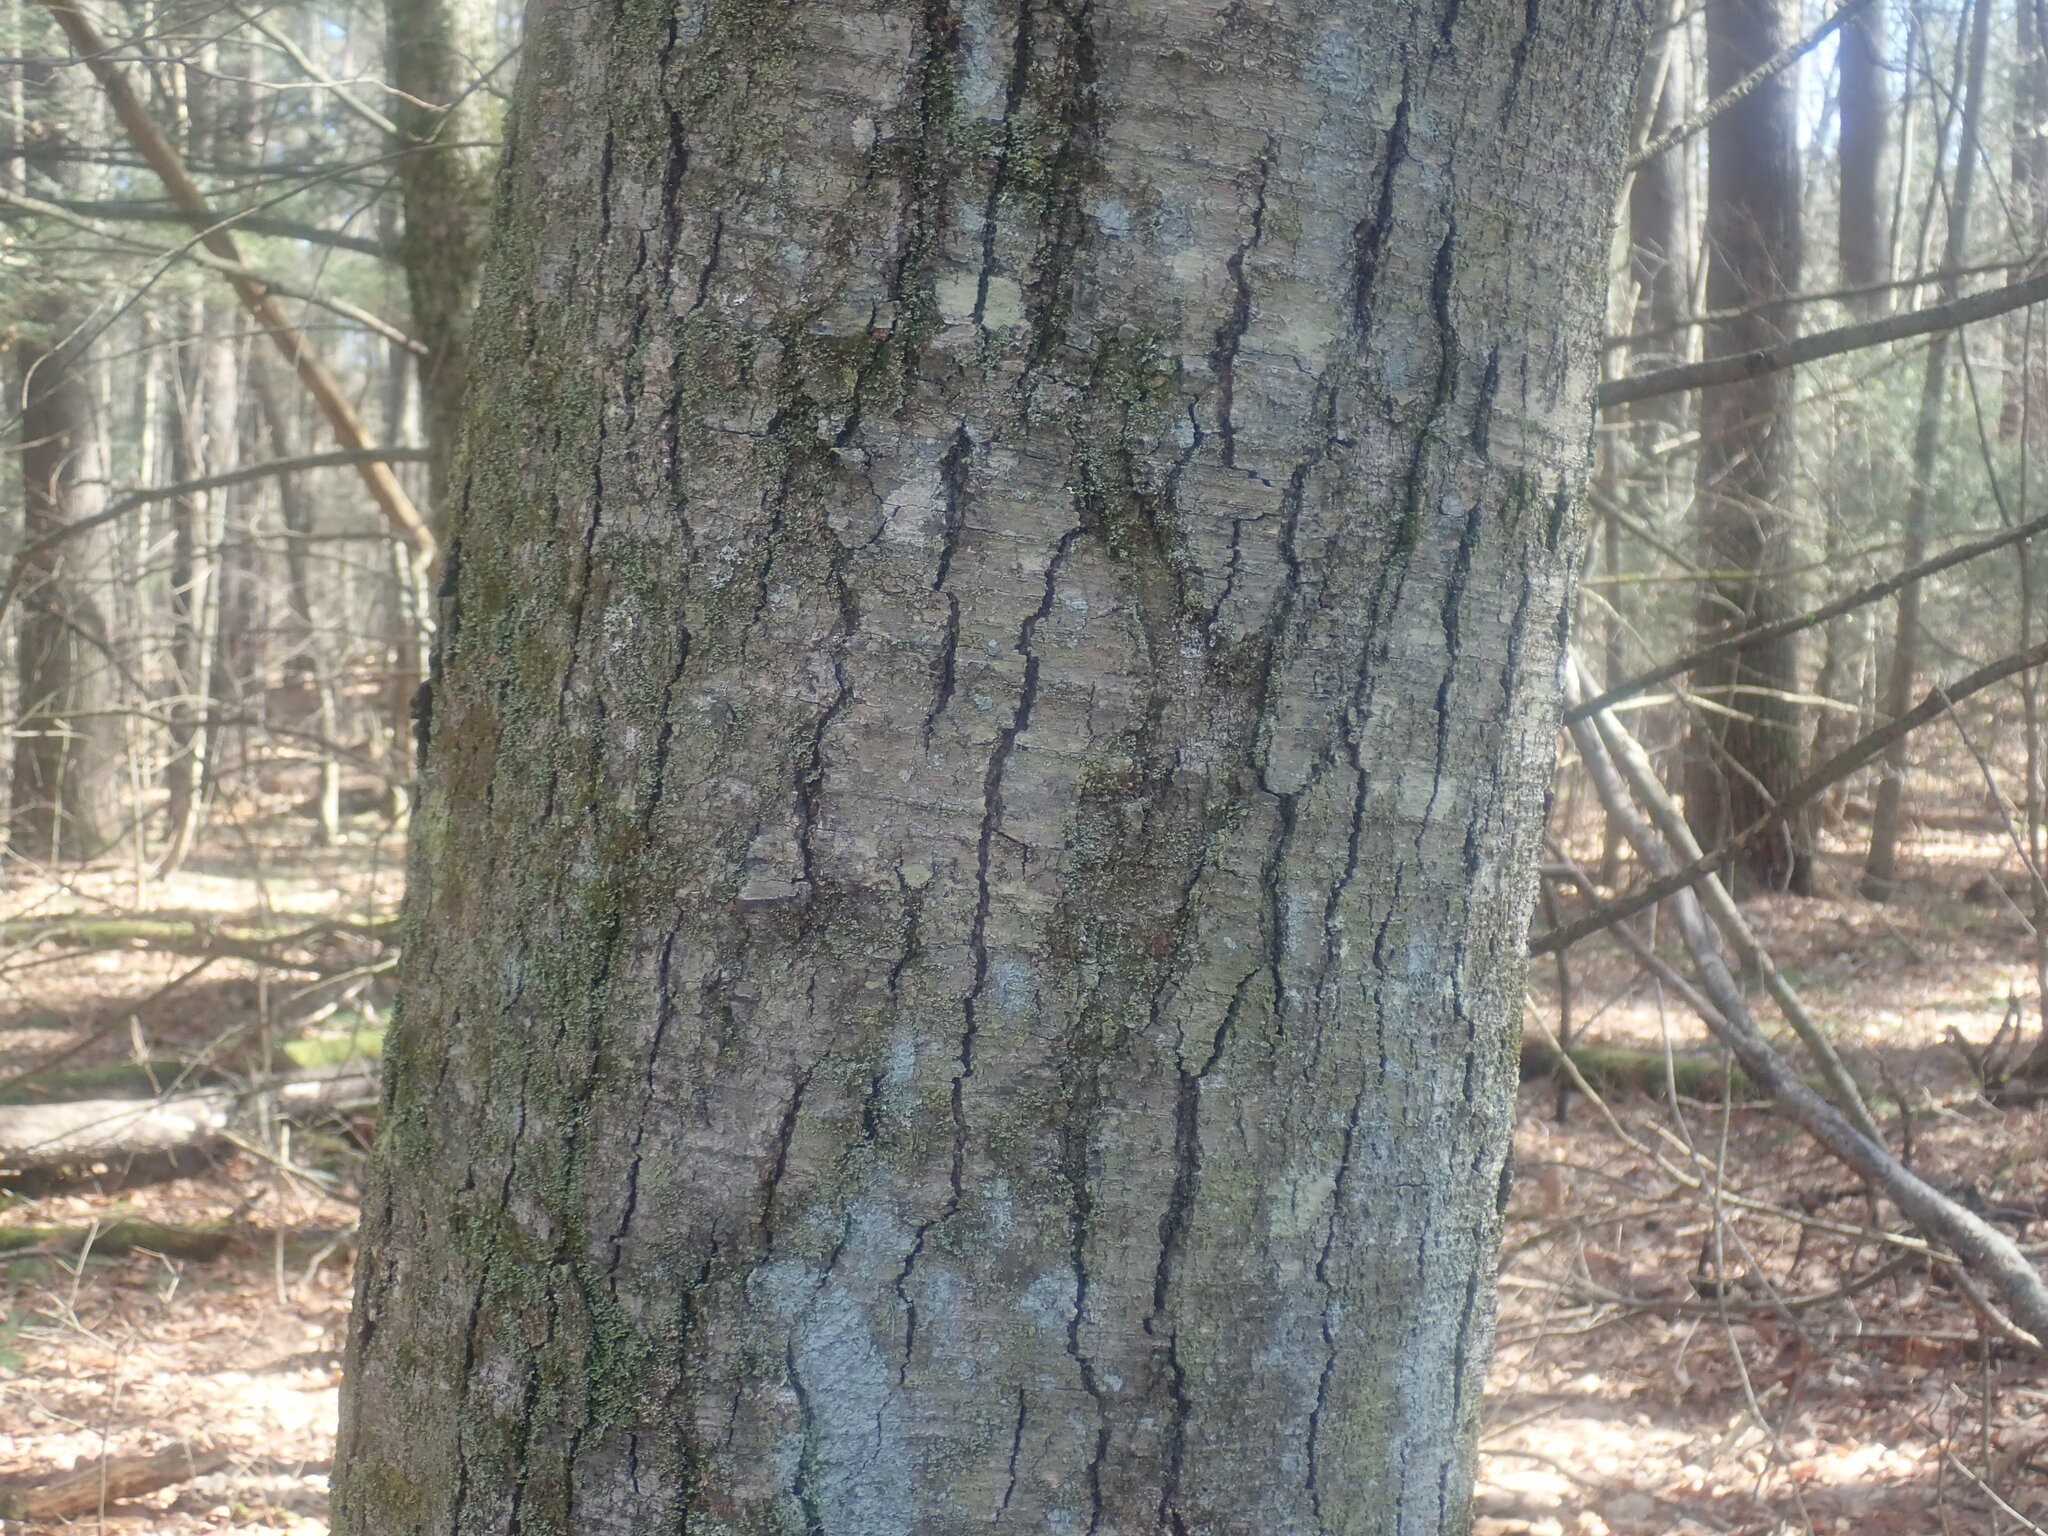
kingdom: Plantae
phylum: Tracheophyta
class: Magnoliopsida
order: Fagales
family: Betulaceae
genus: Betula
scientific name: Betula lenta
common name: Black birch
